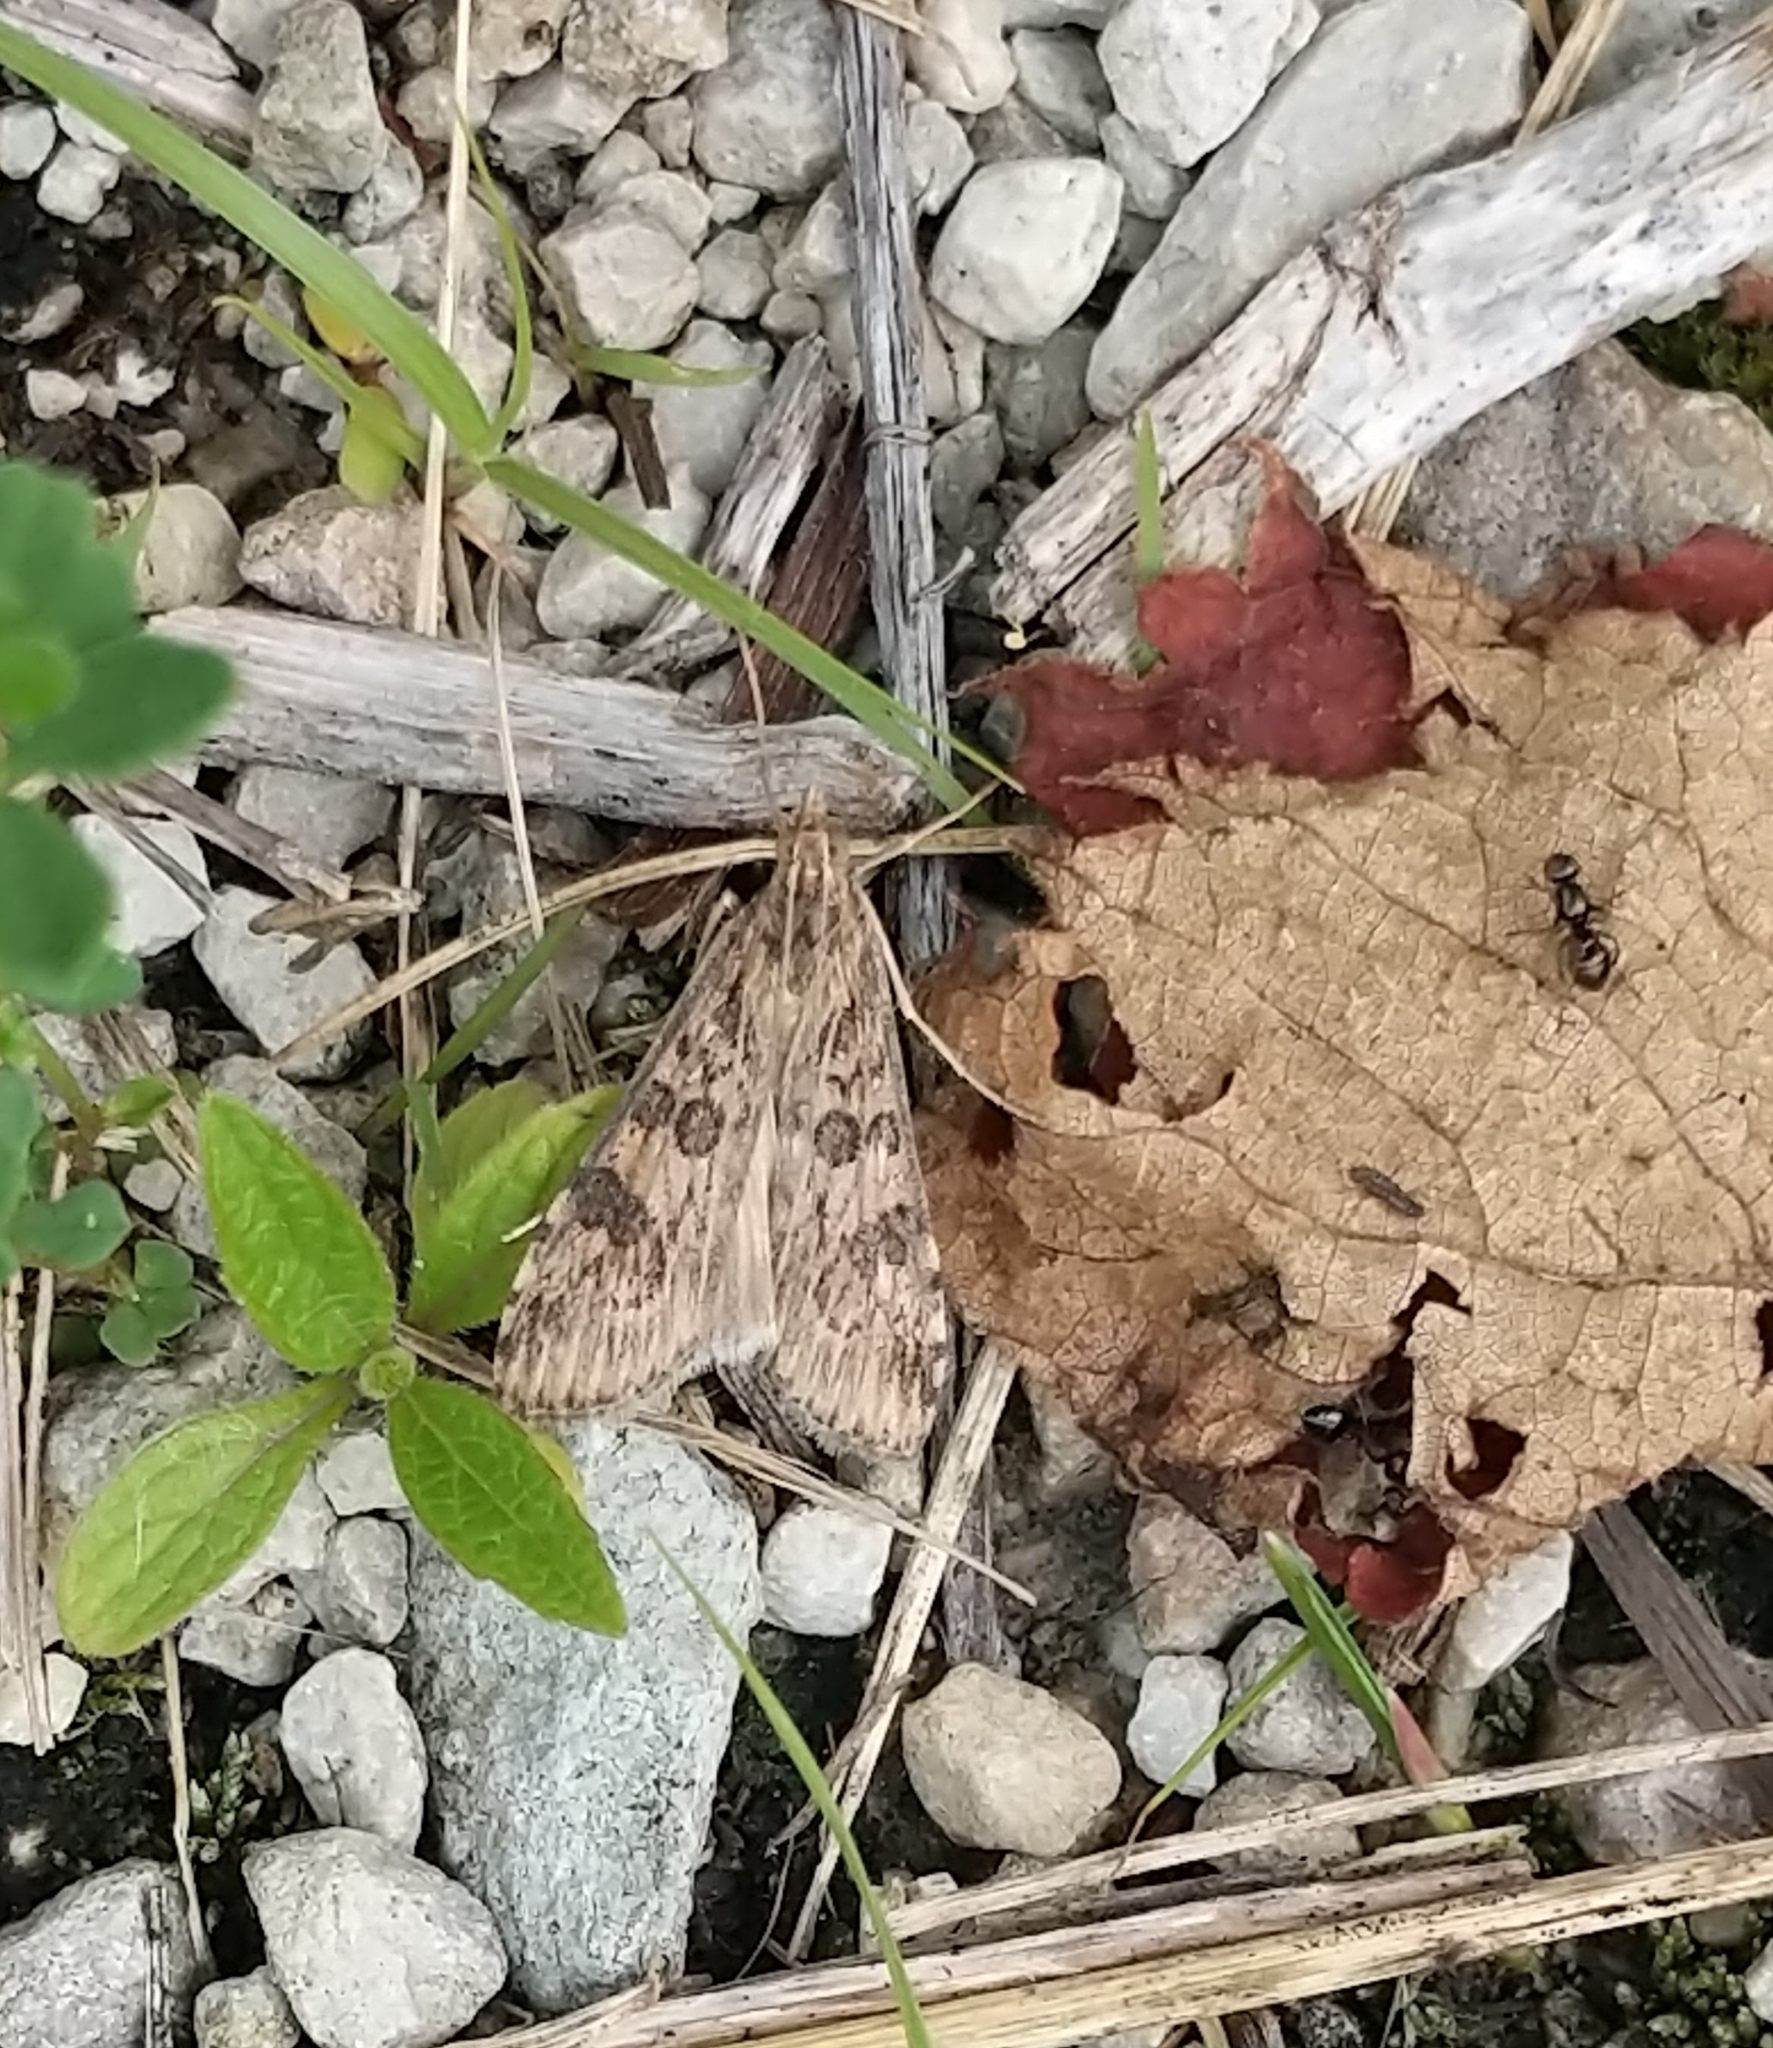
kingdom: Animalia
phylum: Arthropoda
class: Insecta
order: Lepidoptera
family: Crambidae
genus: Nomophila
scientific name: Nomophila nearctica
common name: American rush veneer
